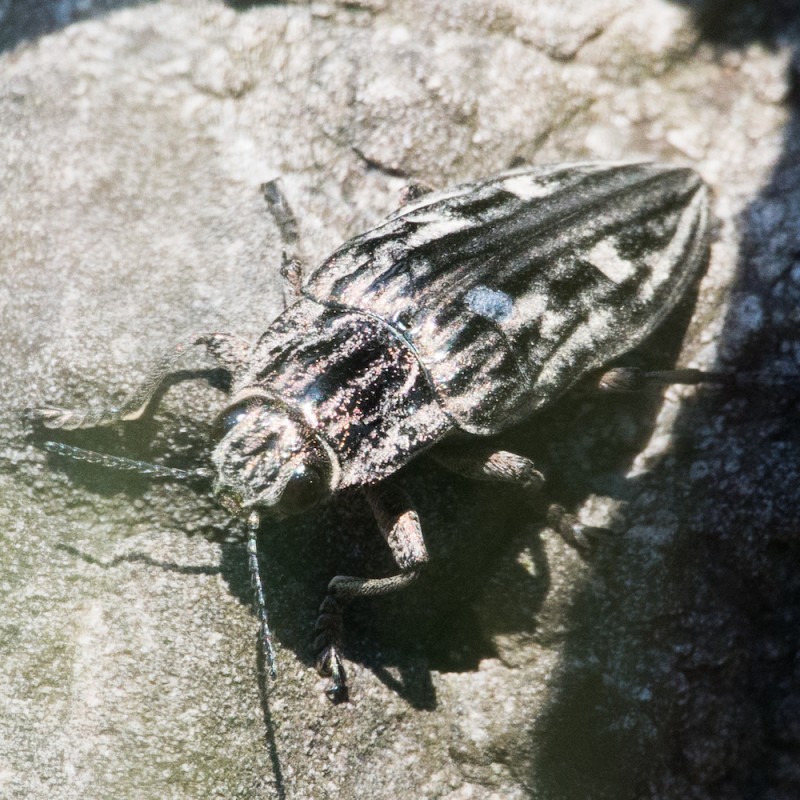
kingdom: Animalia
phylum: Arthropoda
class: Insecta
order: Coleoptera
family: Buprestidae
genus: Chalcophora
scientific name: Chalcophora mariana
